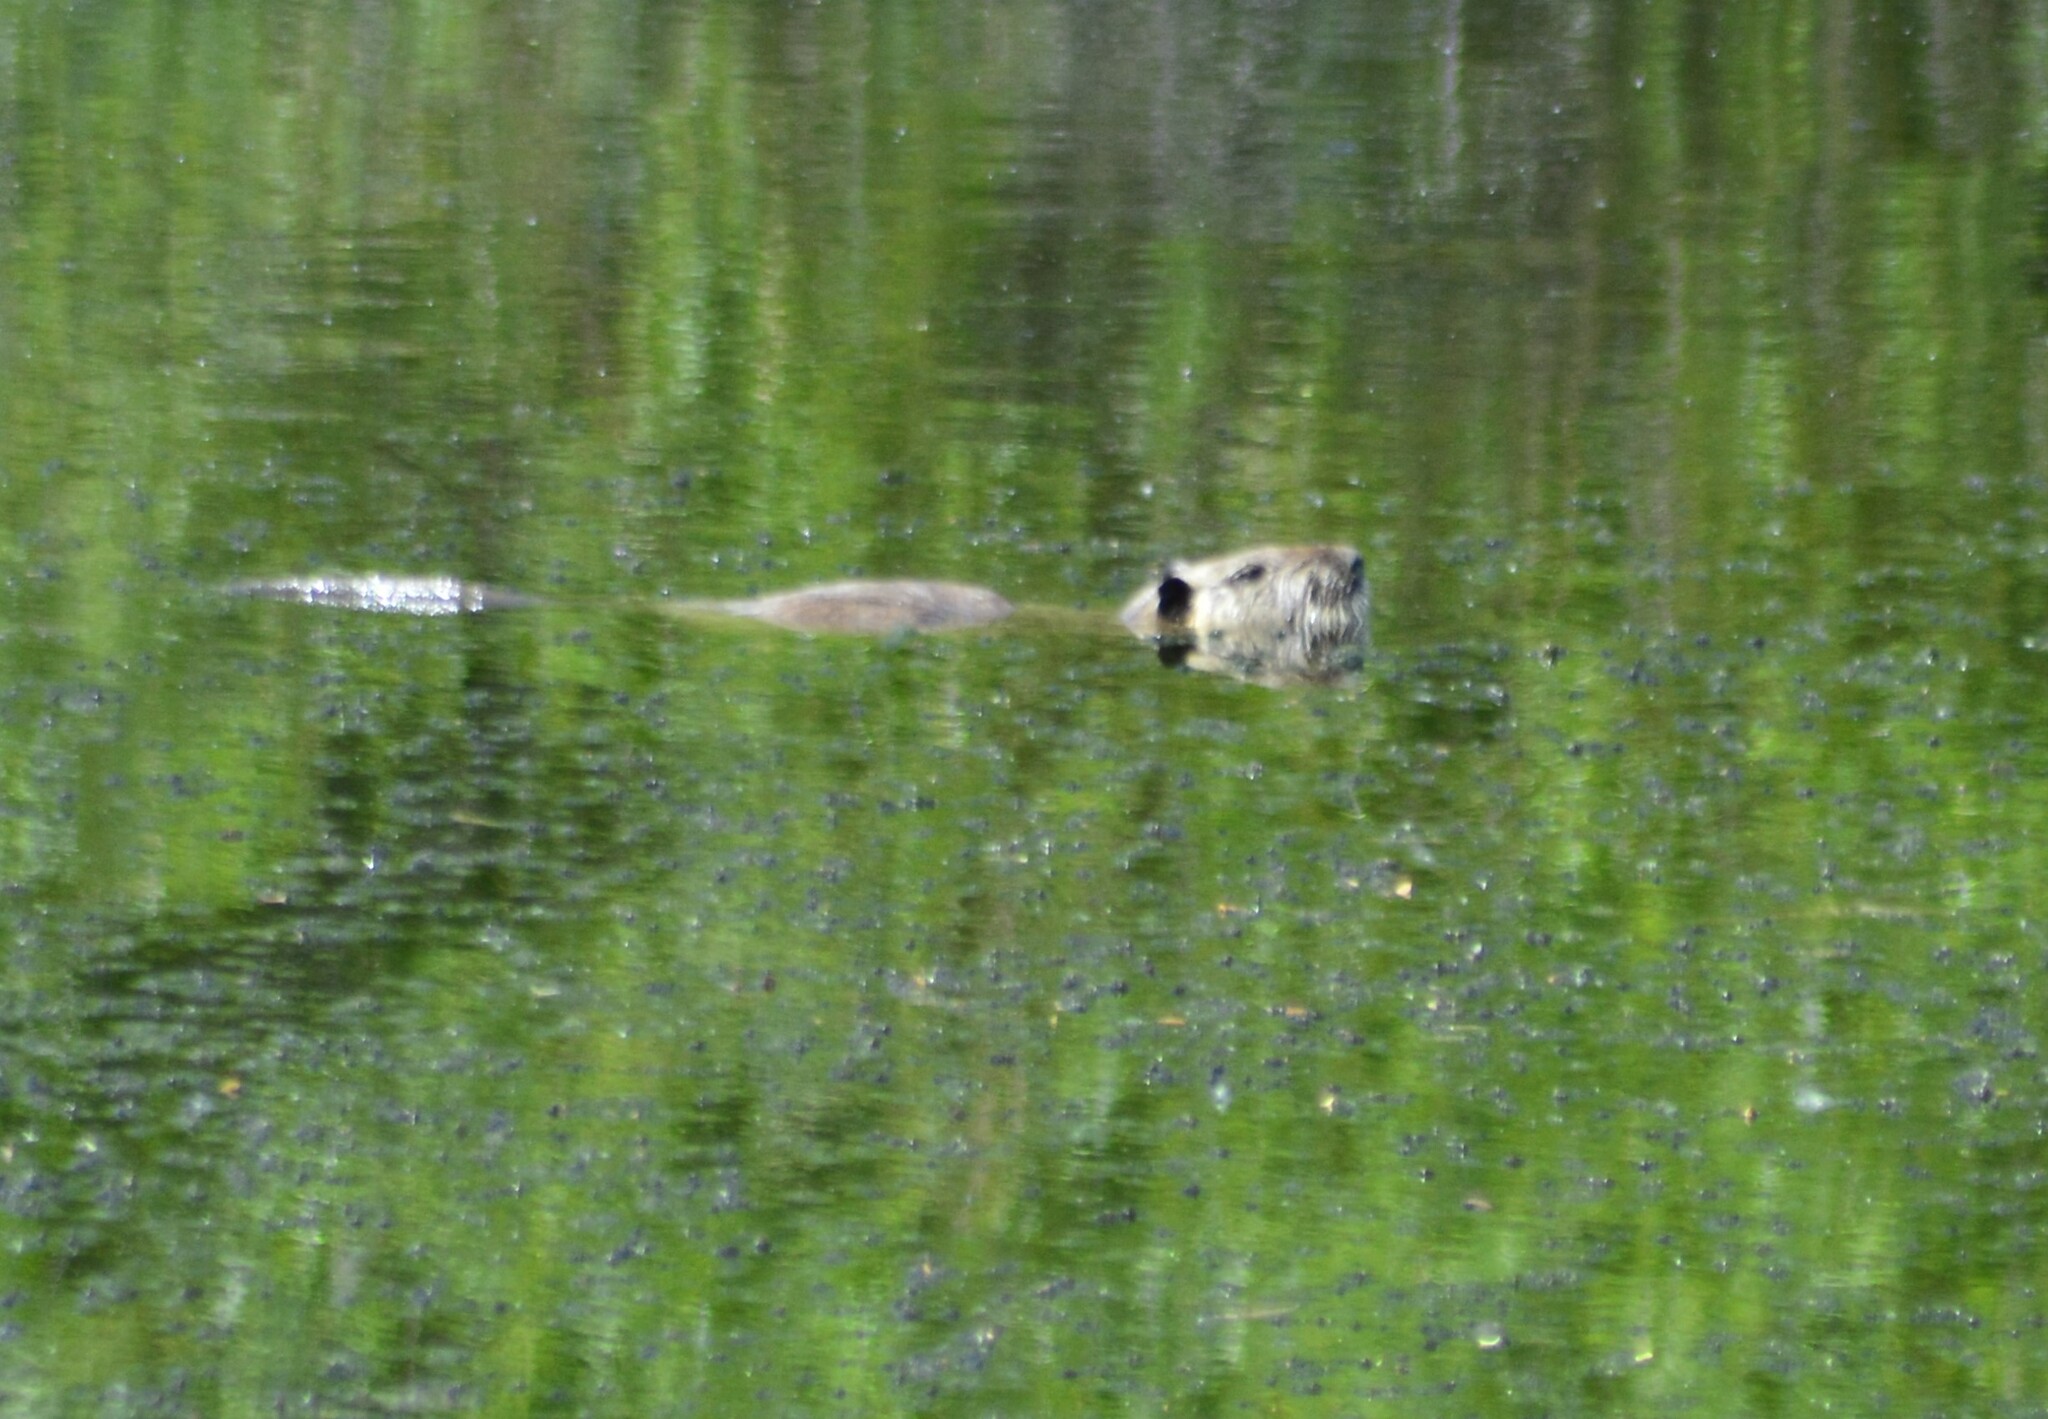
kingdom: Animalia
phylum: Chordata
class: Mammalia
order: Rodentia
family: Myocastoridae
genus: Myocastor
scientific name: Myocastor coypus
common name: Coypu
